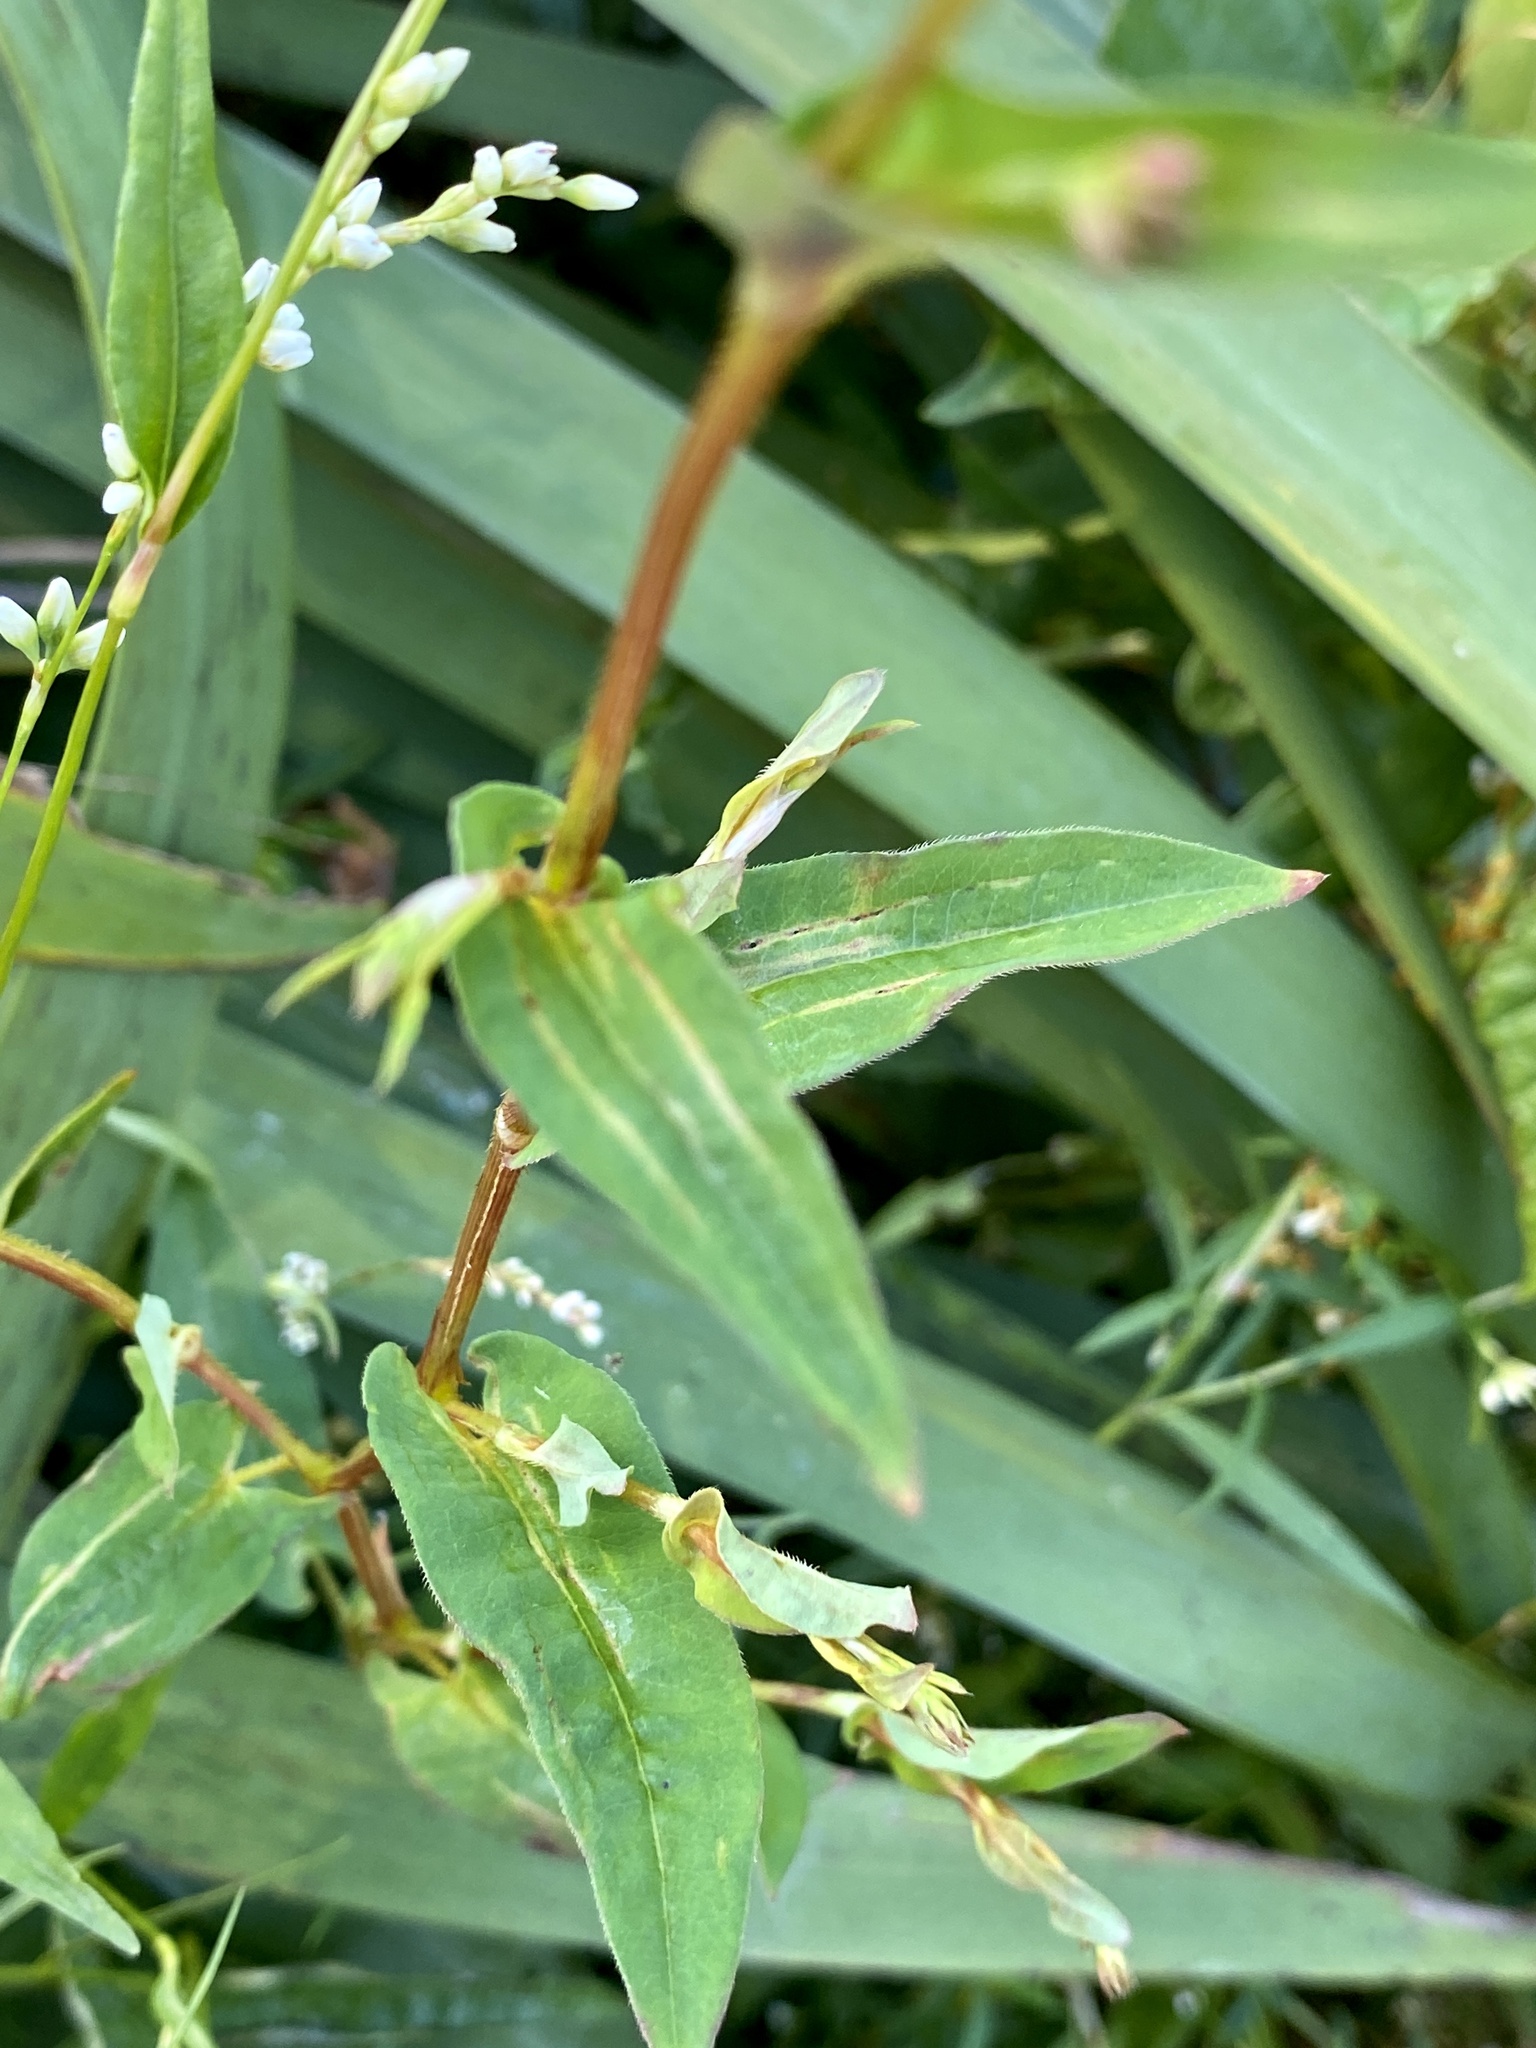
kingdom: Plantae
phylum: Tracheophyta
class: Magnoliopsida
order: Caryophyllales
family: Polygonaceae
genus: Persicaria
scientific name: Persicaria sagittata
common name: American tearthumb
